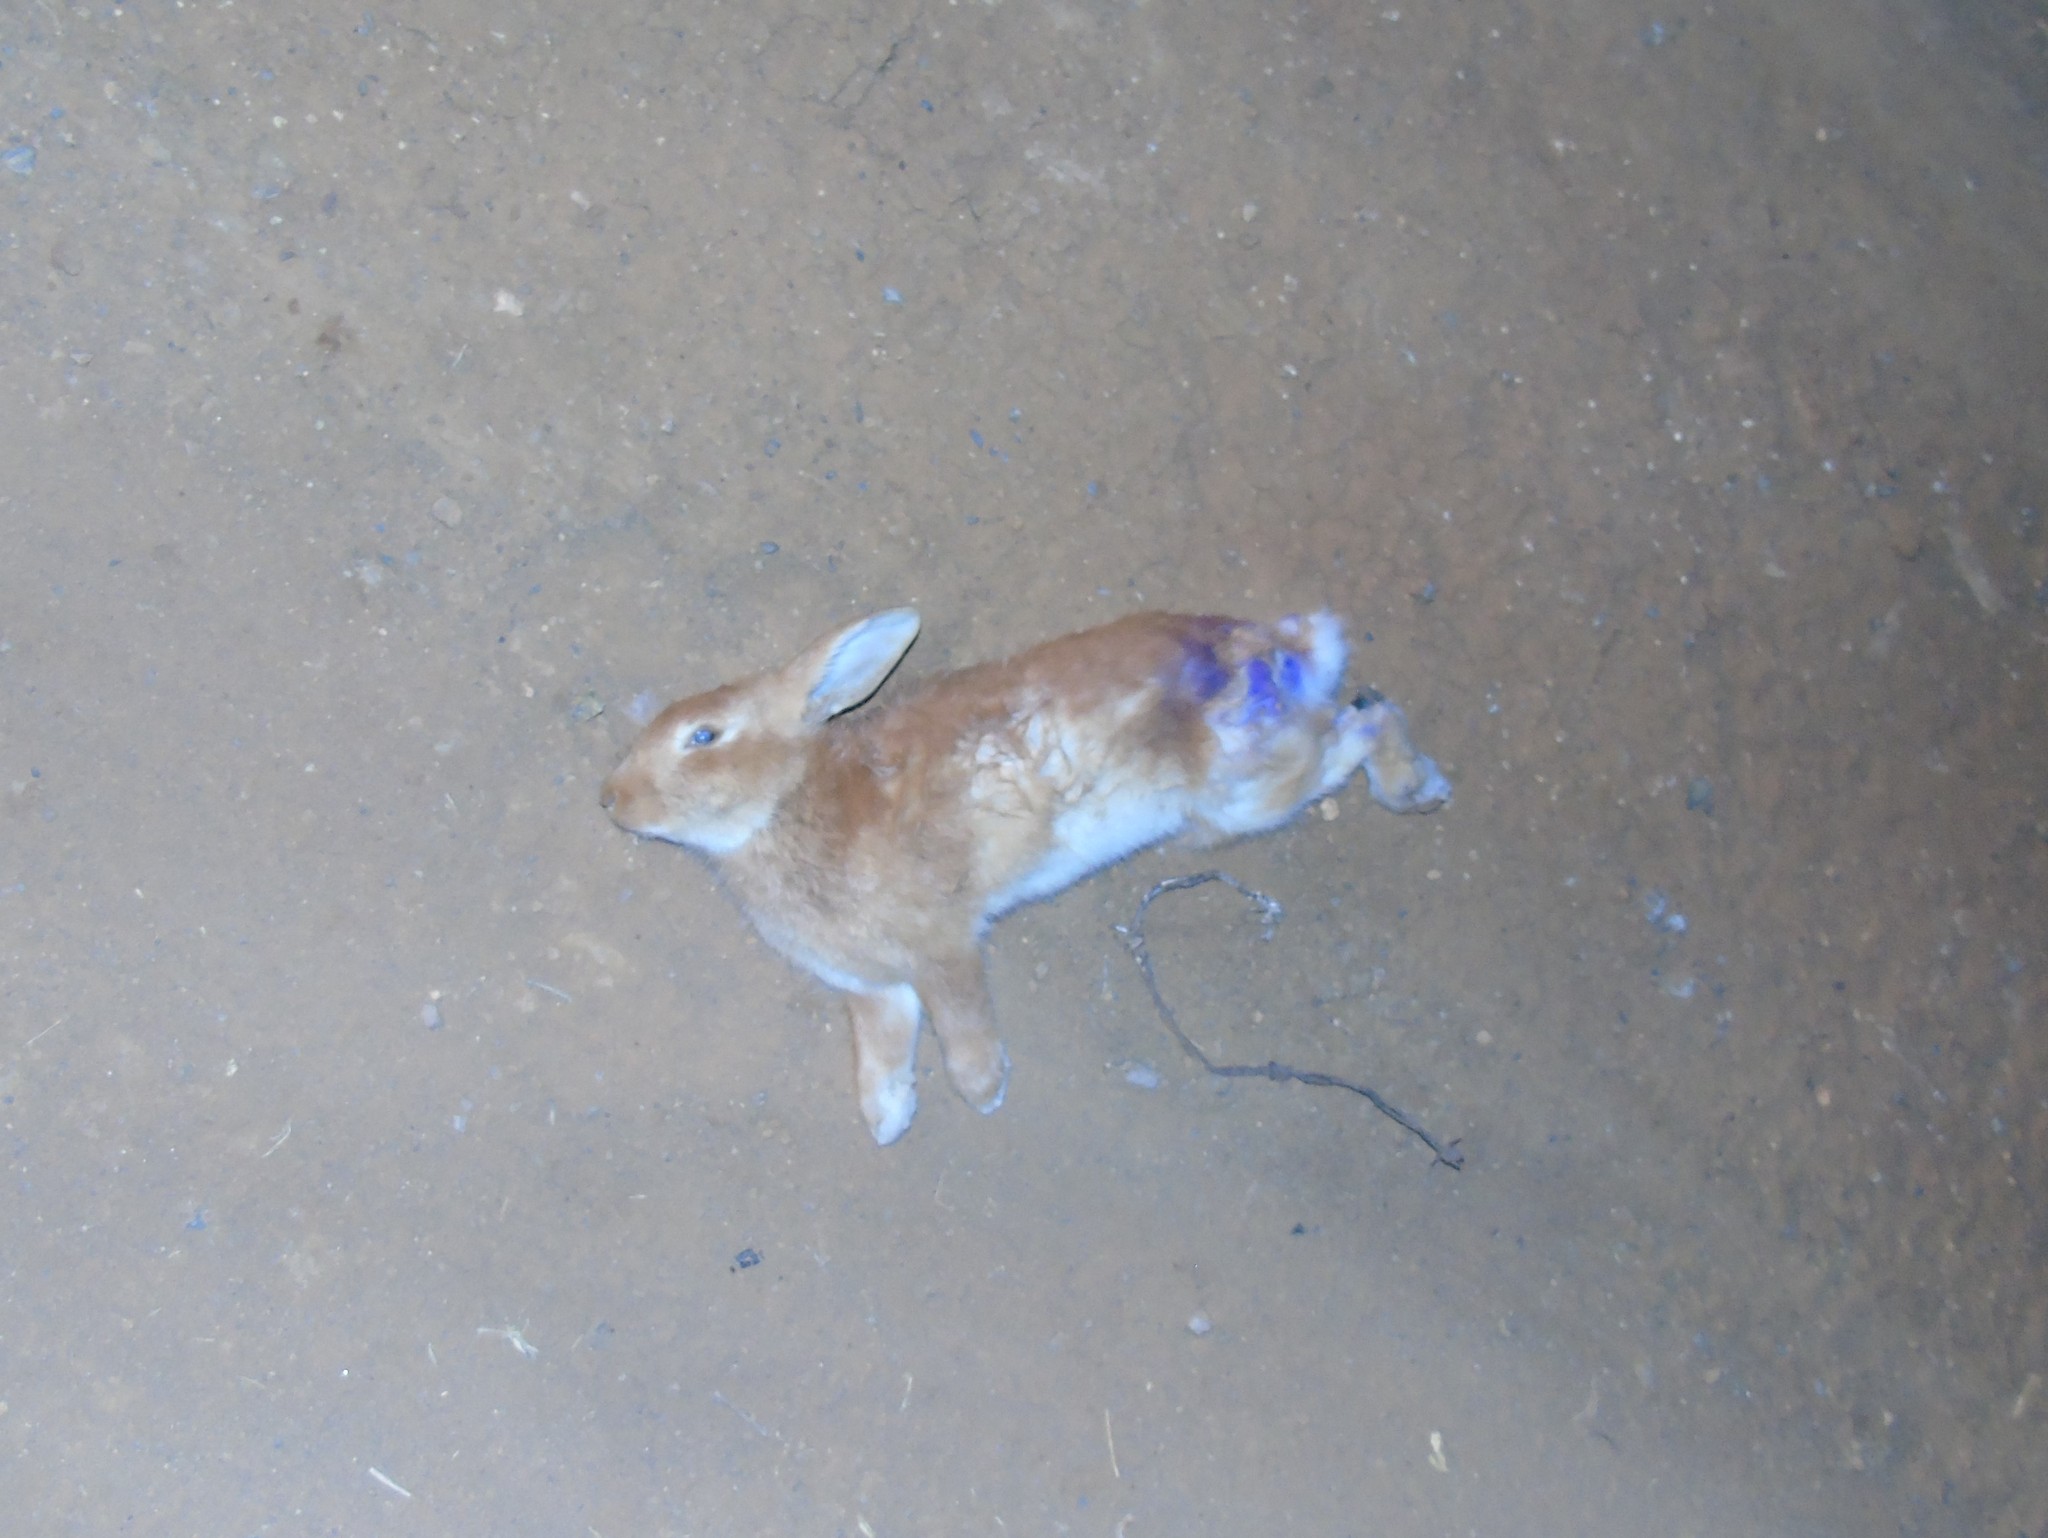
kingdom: Animalia
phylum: Chordata
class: Mammalia
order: Lagomorpha
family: Leporidae
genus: Sylvilagus
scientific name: Sylvilagus cunicularius
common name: Mexican cottontail
